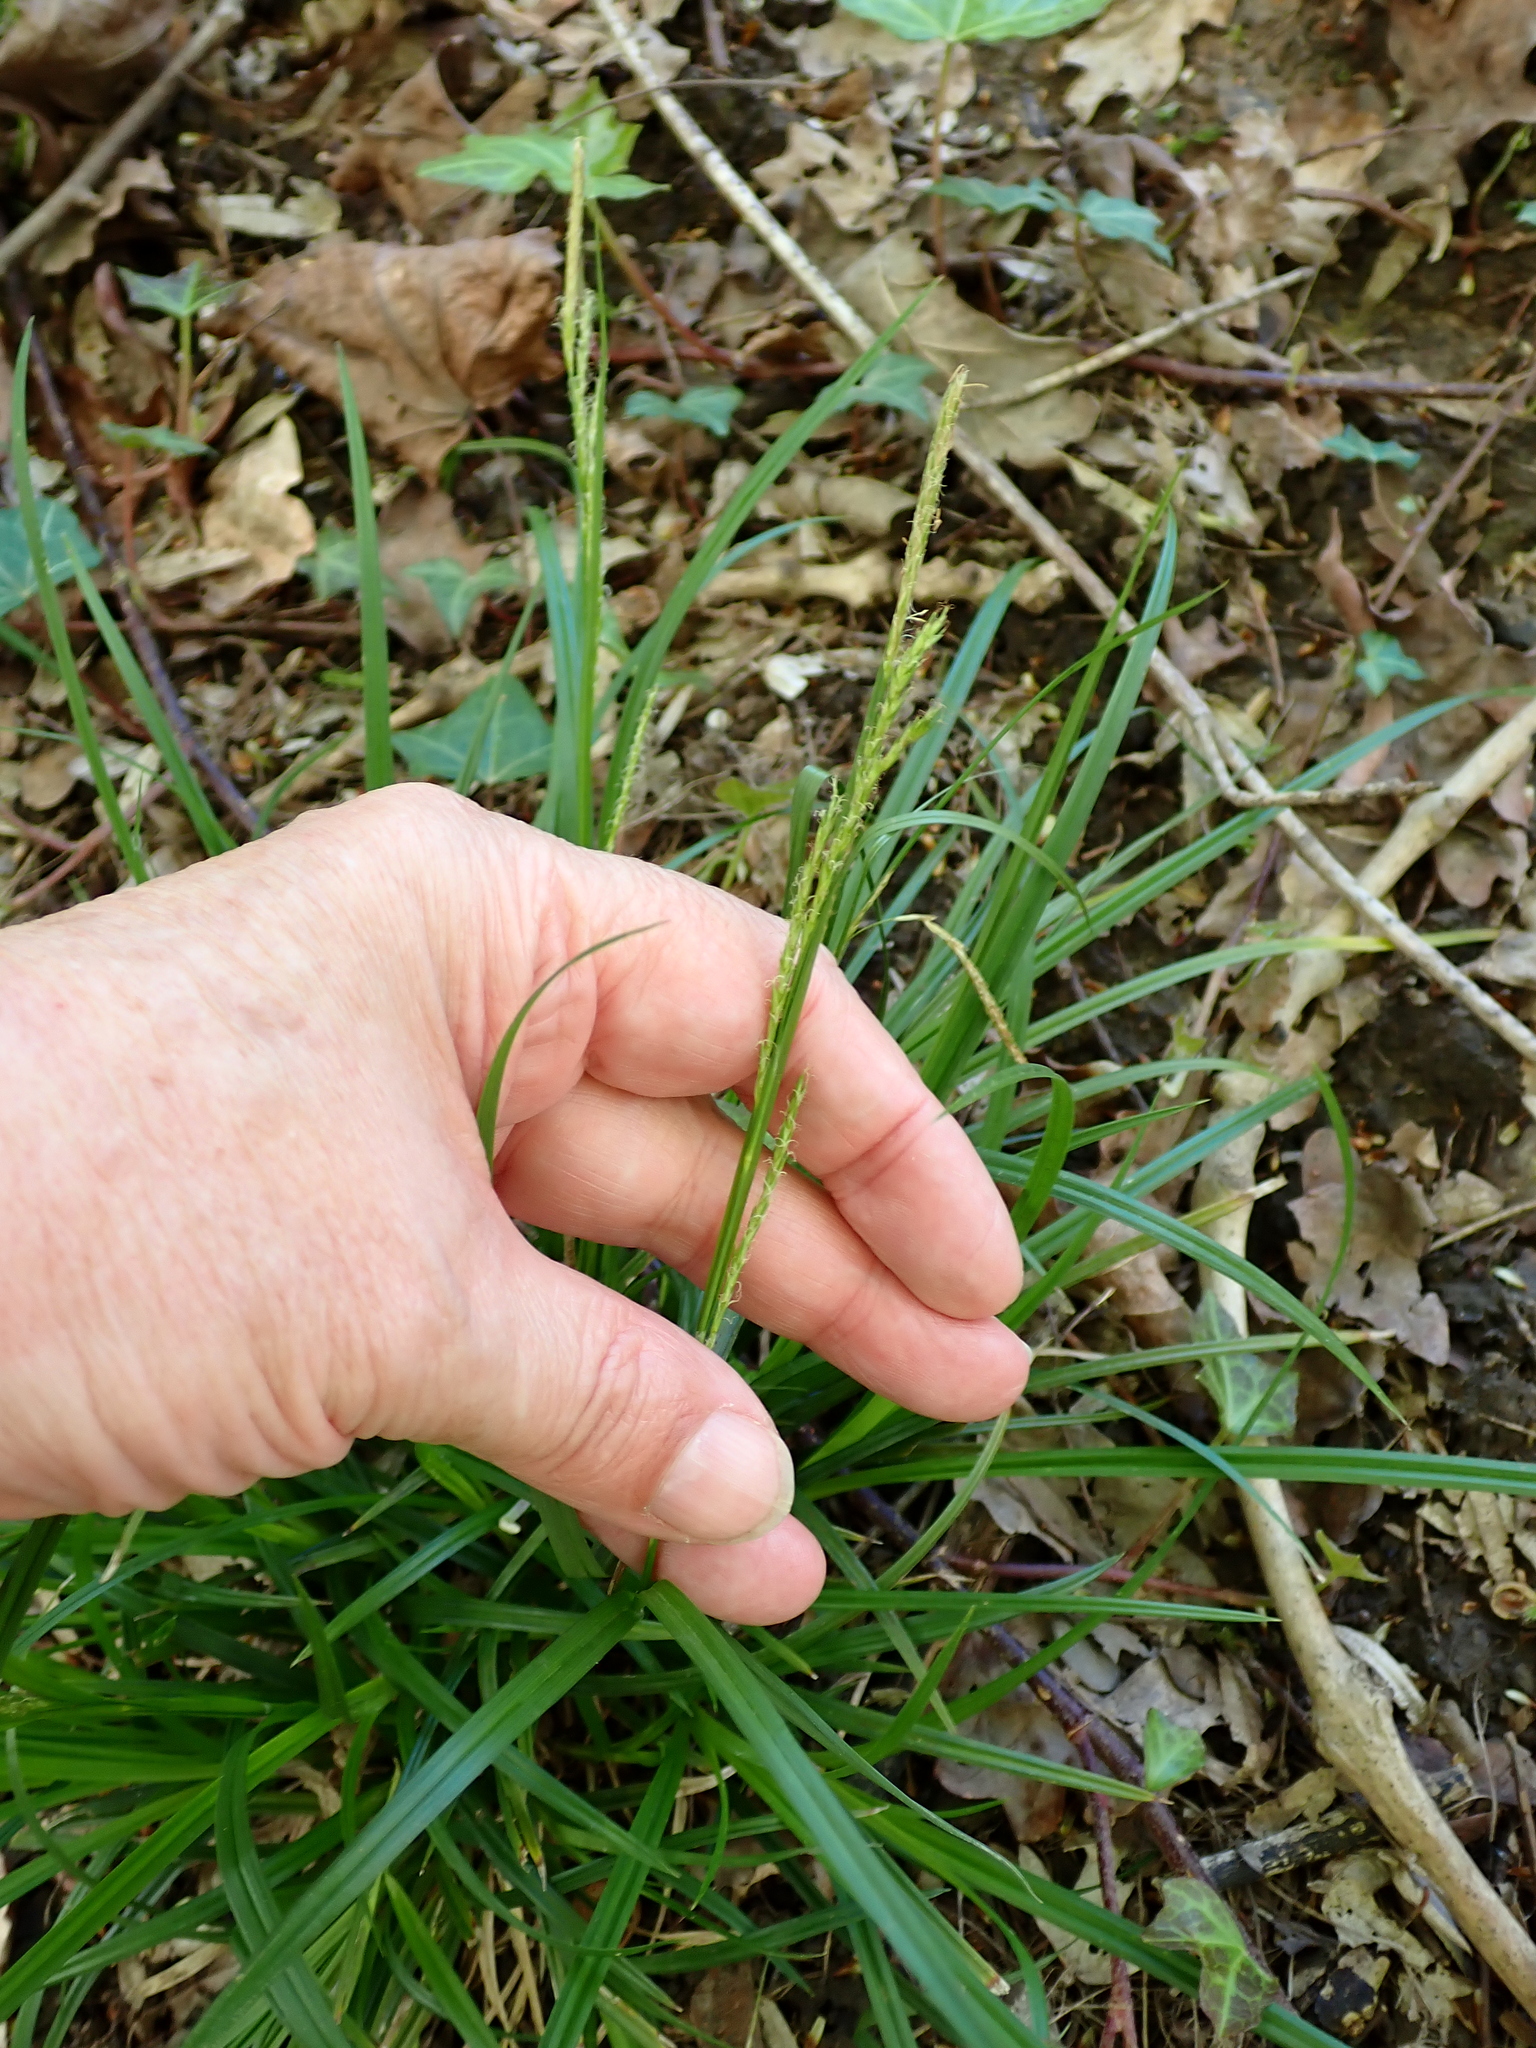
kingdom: Plantae
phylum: Tracheophyta
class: Liliopsida
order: Poales
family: Cyperaceae
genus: Carex
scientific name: Carex sylvatica
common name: Wood-sedge
